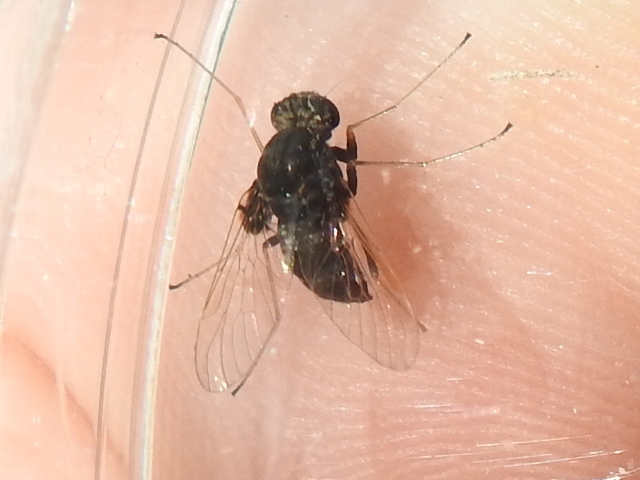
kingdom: Animalia
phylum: Arthropoda
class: Insecta
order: Diptera
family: Rhagionidae
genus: Chrysopilus
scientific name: Chrysopilus basilaris
